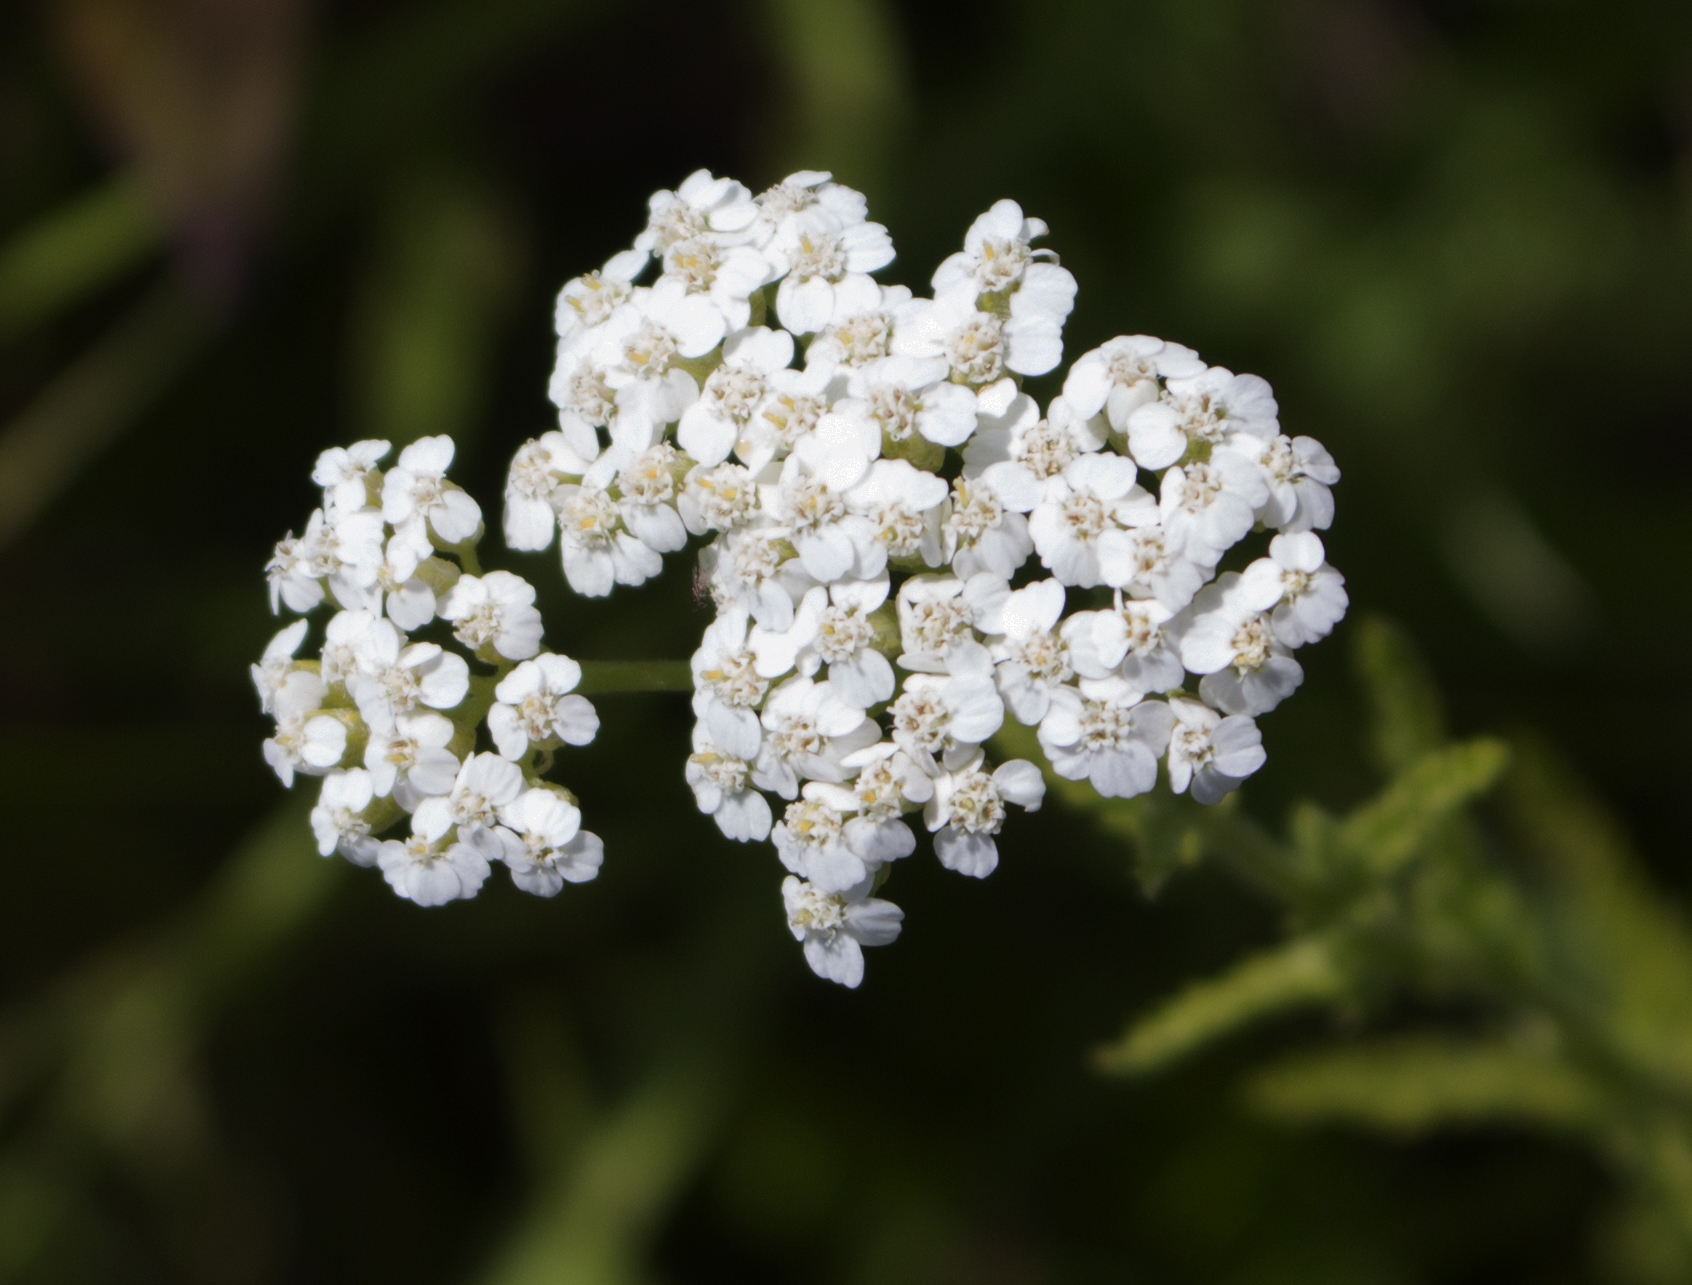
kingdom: Plantae
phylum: Tracheophyta
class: Magnoliopsida
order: Asterales
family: Asteraceae
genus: Achillea
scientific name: Achillea millefolium
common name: Yarrow
